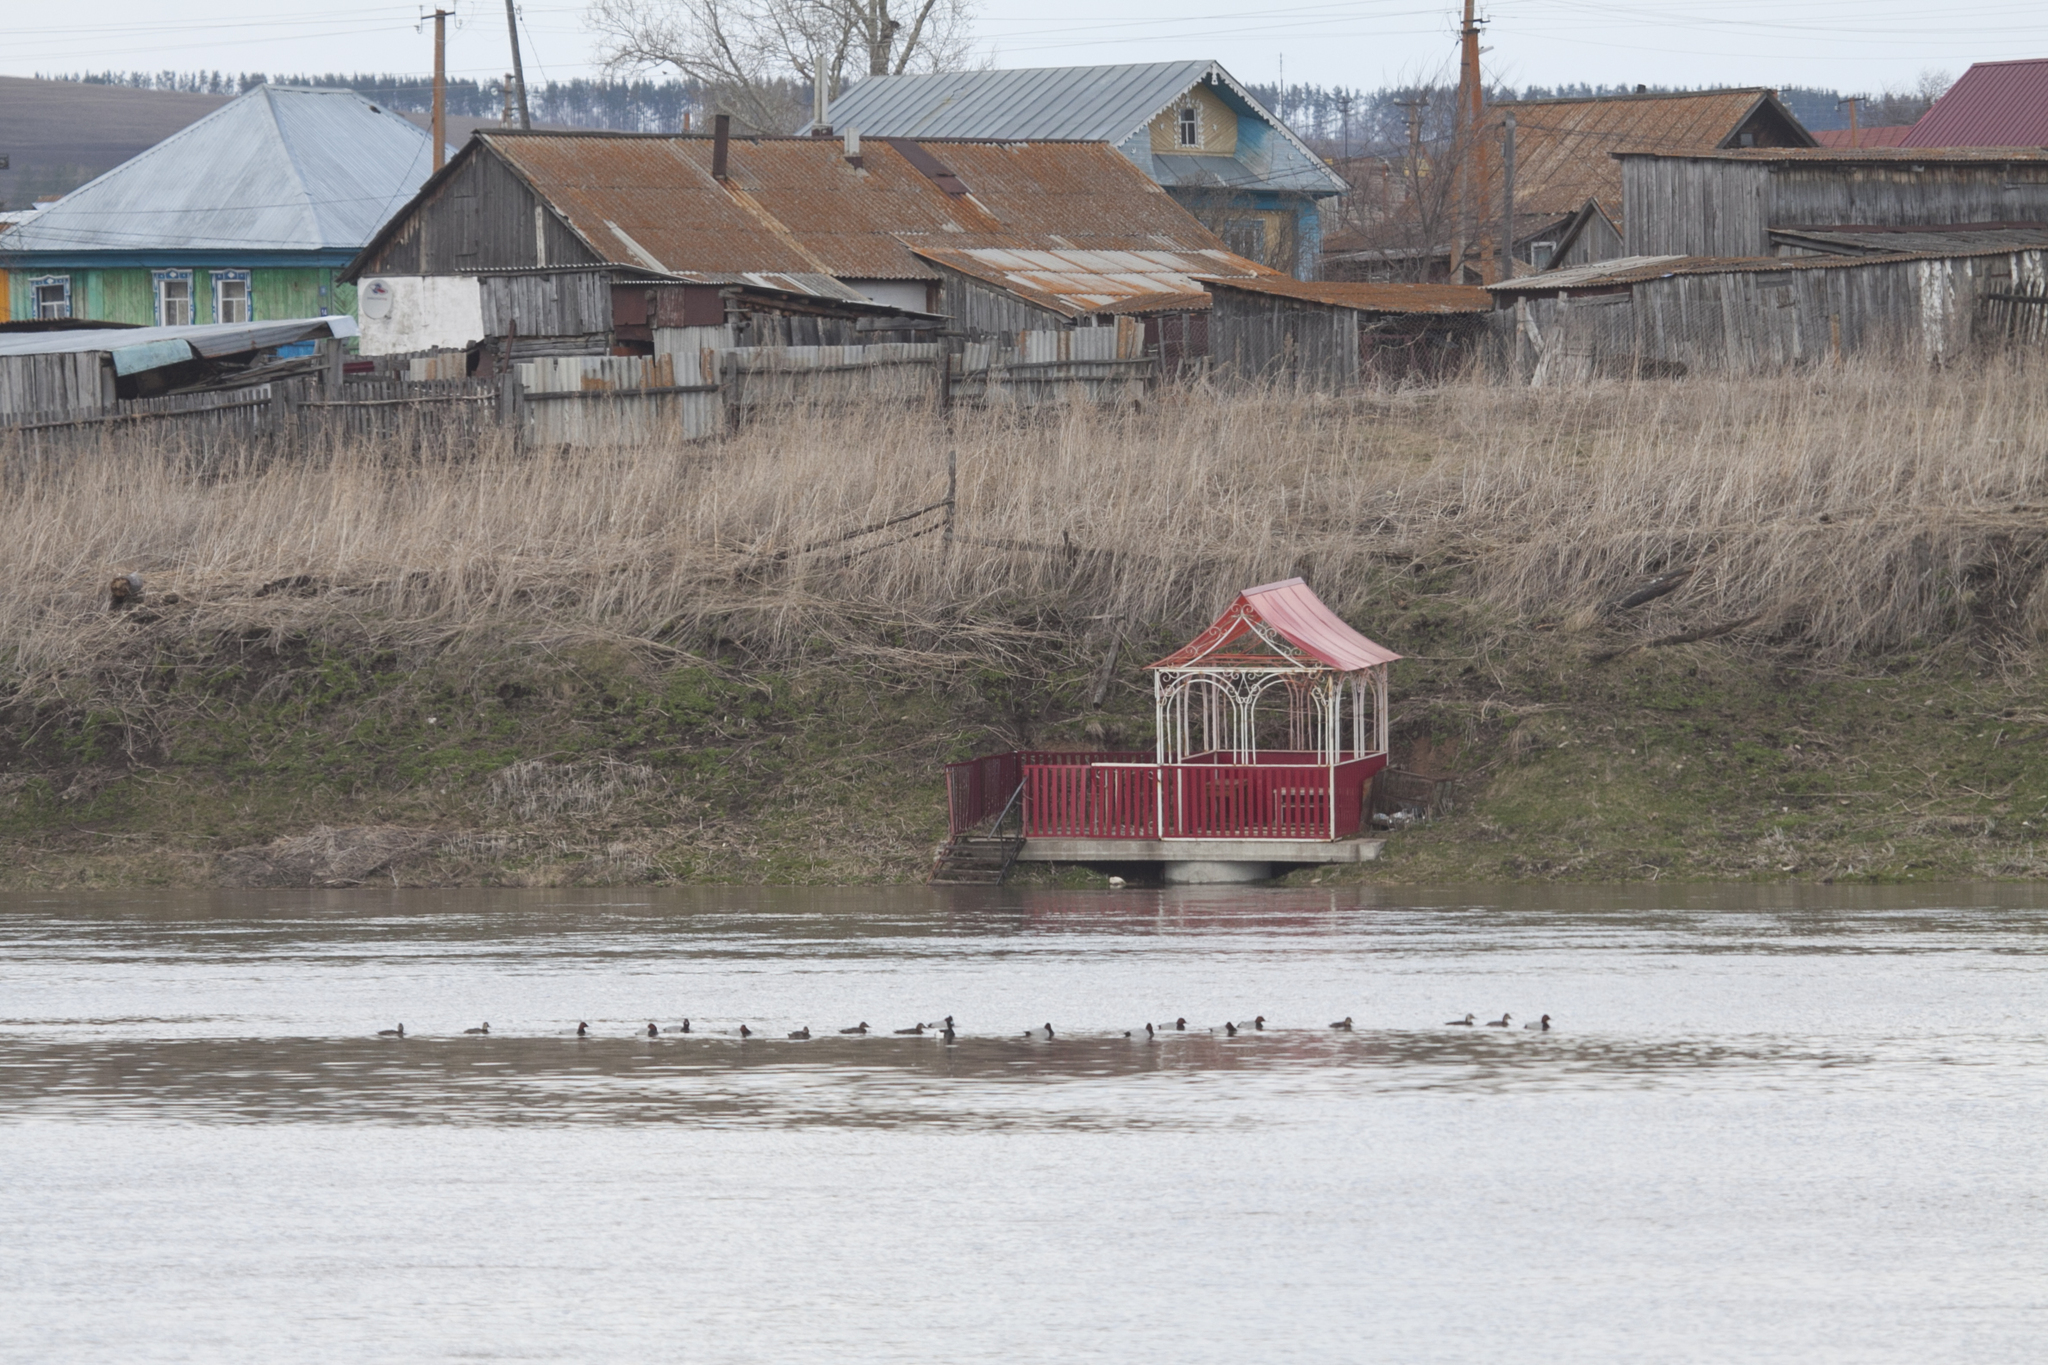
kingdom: Animalia
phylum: Chordata
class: Aves
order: Anseriformes
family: Anatidae
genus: Aythya
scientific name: Aythya ferina
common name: Common pochard
